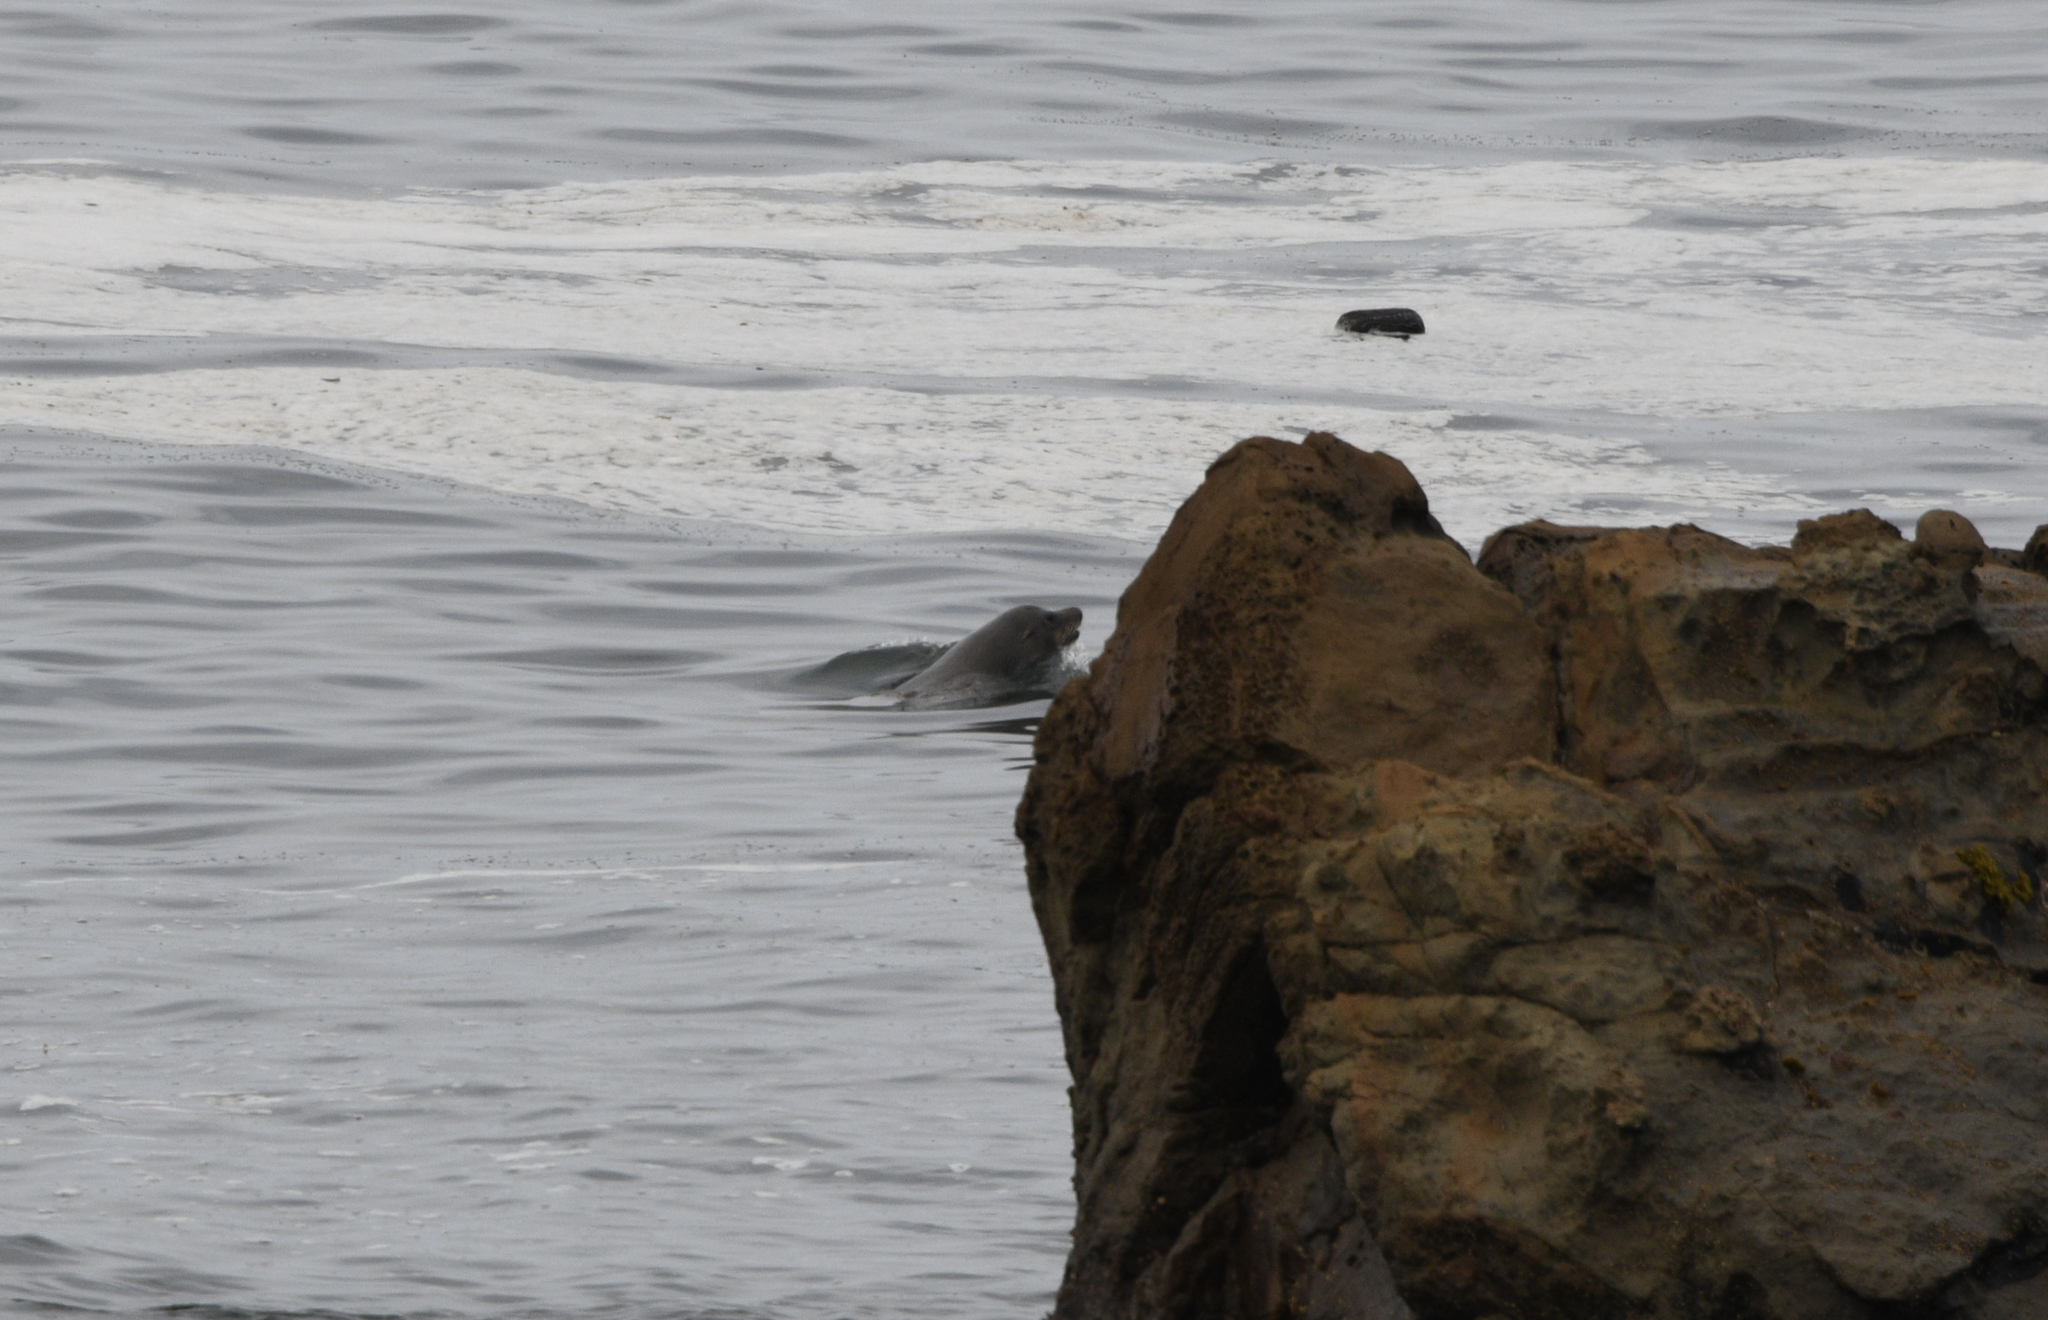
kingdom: Animalia
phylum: Chordata
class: Mammalia
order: Carnivora
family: Otariidae
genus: Zalophus
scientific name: Zalophus californianus
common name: California sea lion
